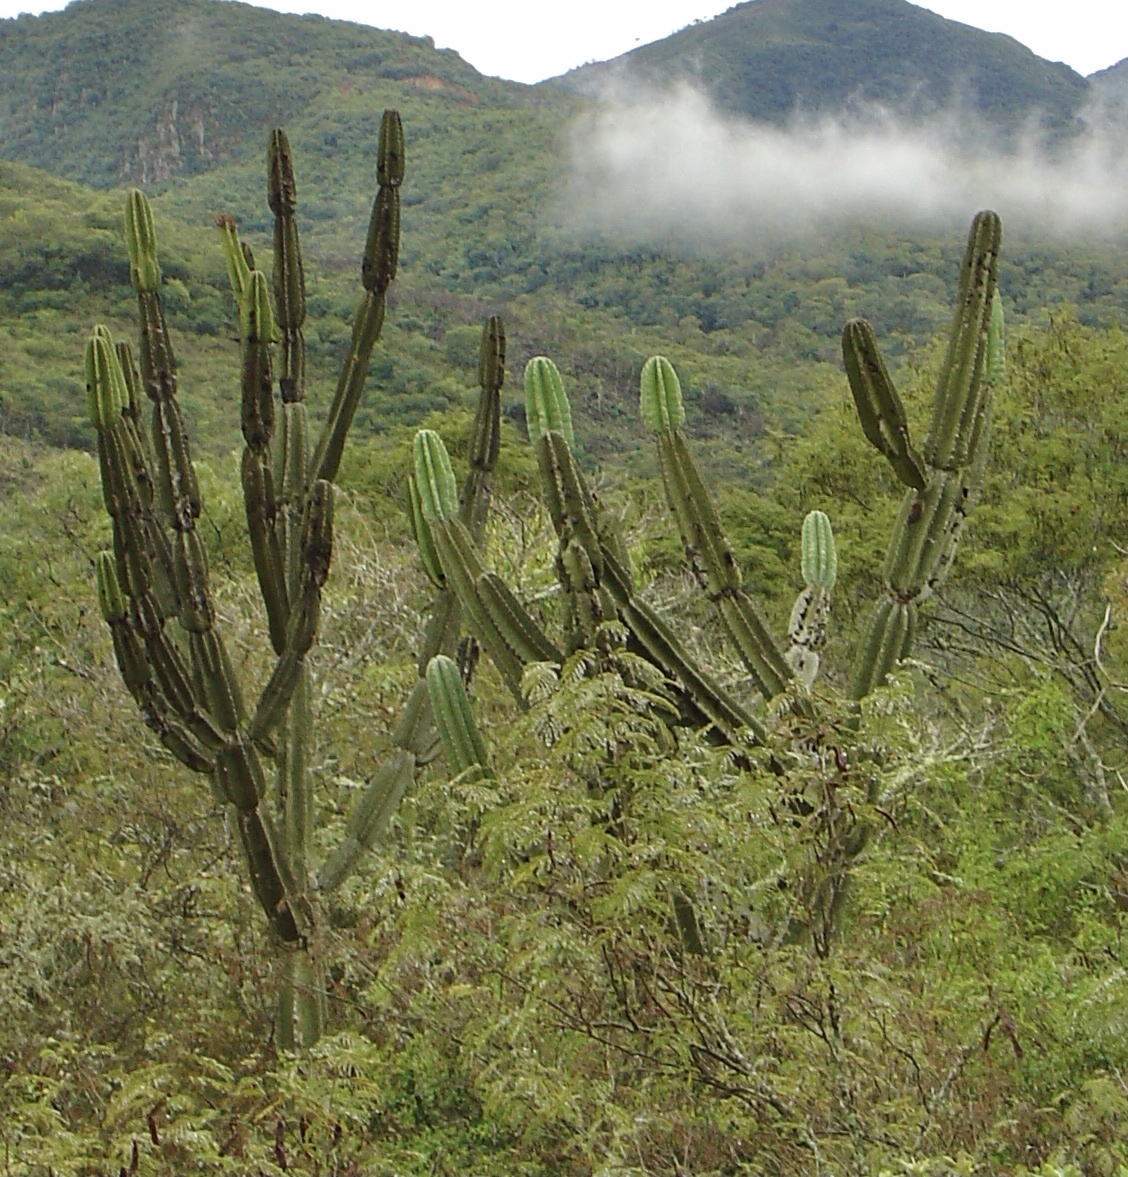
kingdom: Plantae
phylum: Tracheophyta
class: Magnoliopsida
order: Caryophyllales
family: Cactaceae
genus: Cereus
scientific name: Cereus stenogonus
